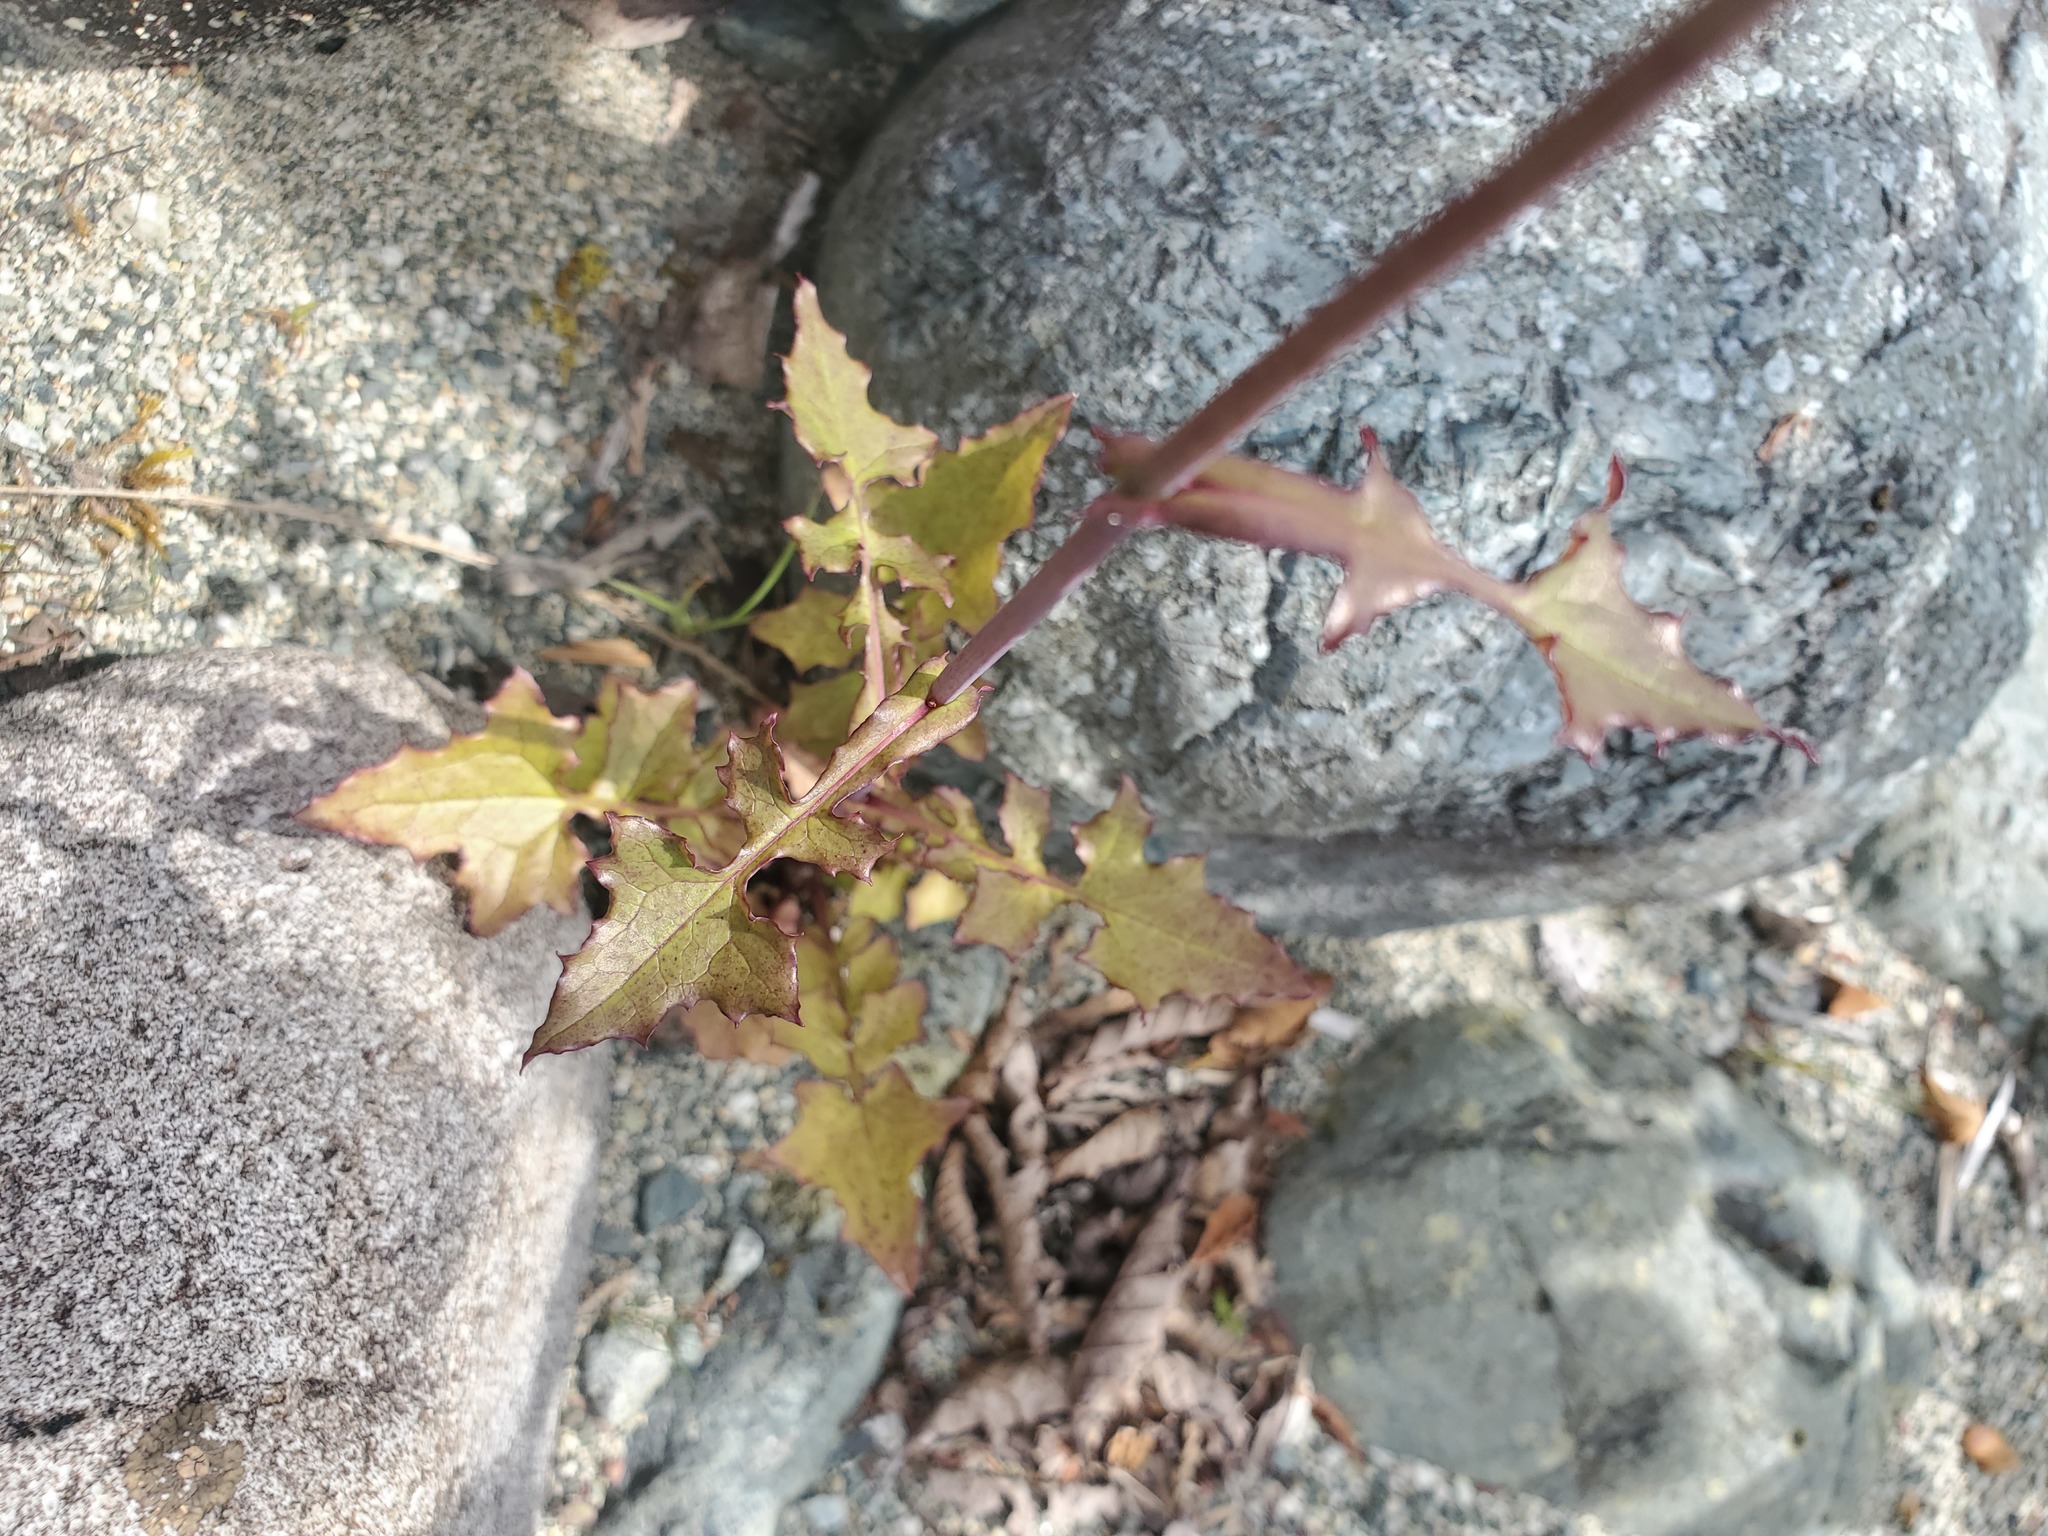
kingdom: Plantae
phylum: Tracheophyta
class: Magnoliopsida
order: Asterales
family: Asteraceae
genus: Mycelis
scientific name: Mycelis muralis
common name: Wall lettuce
